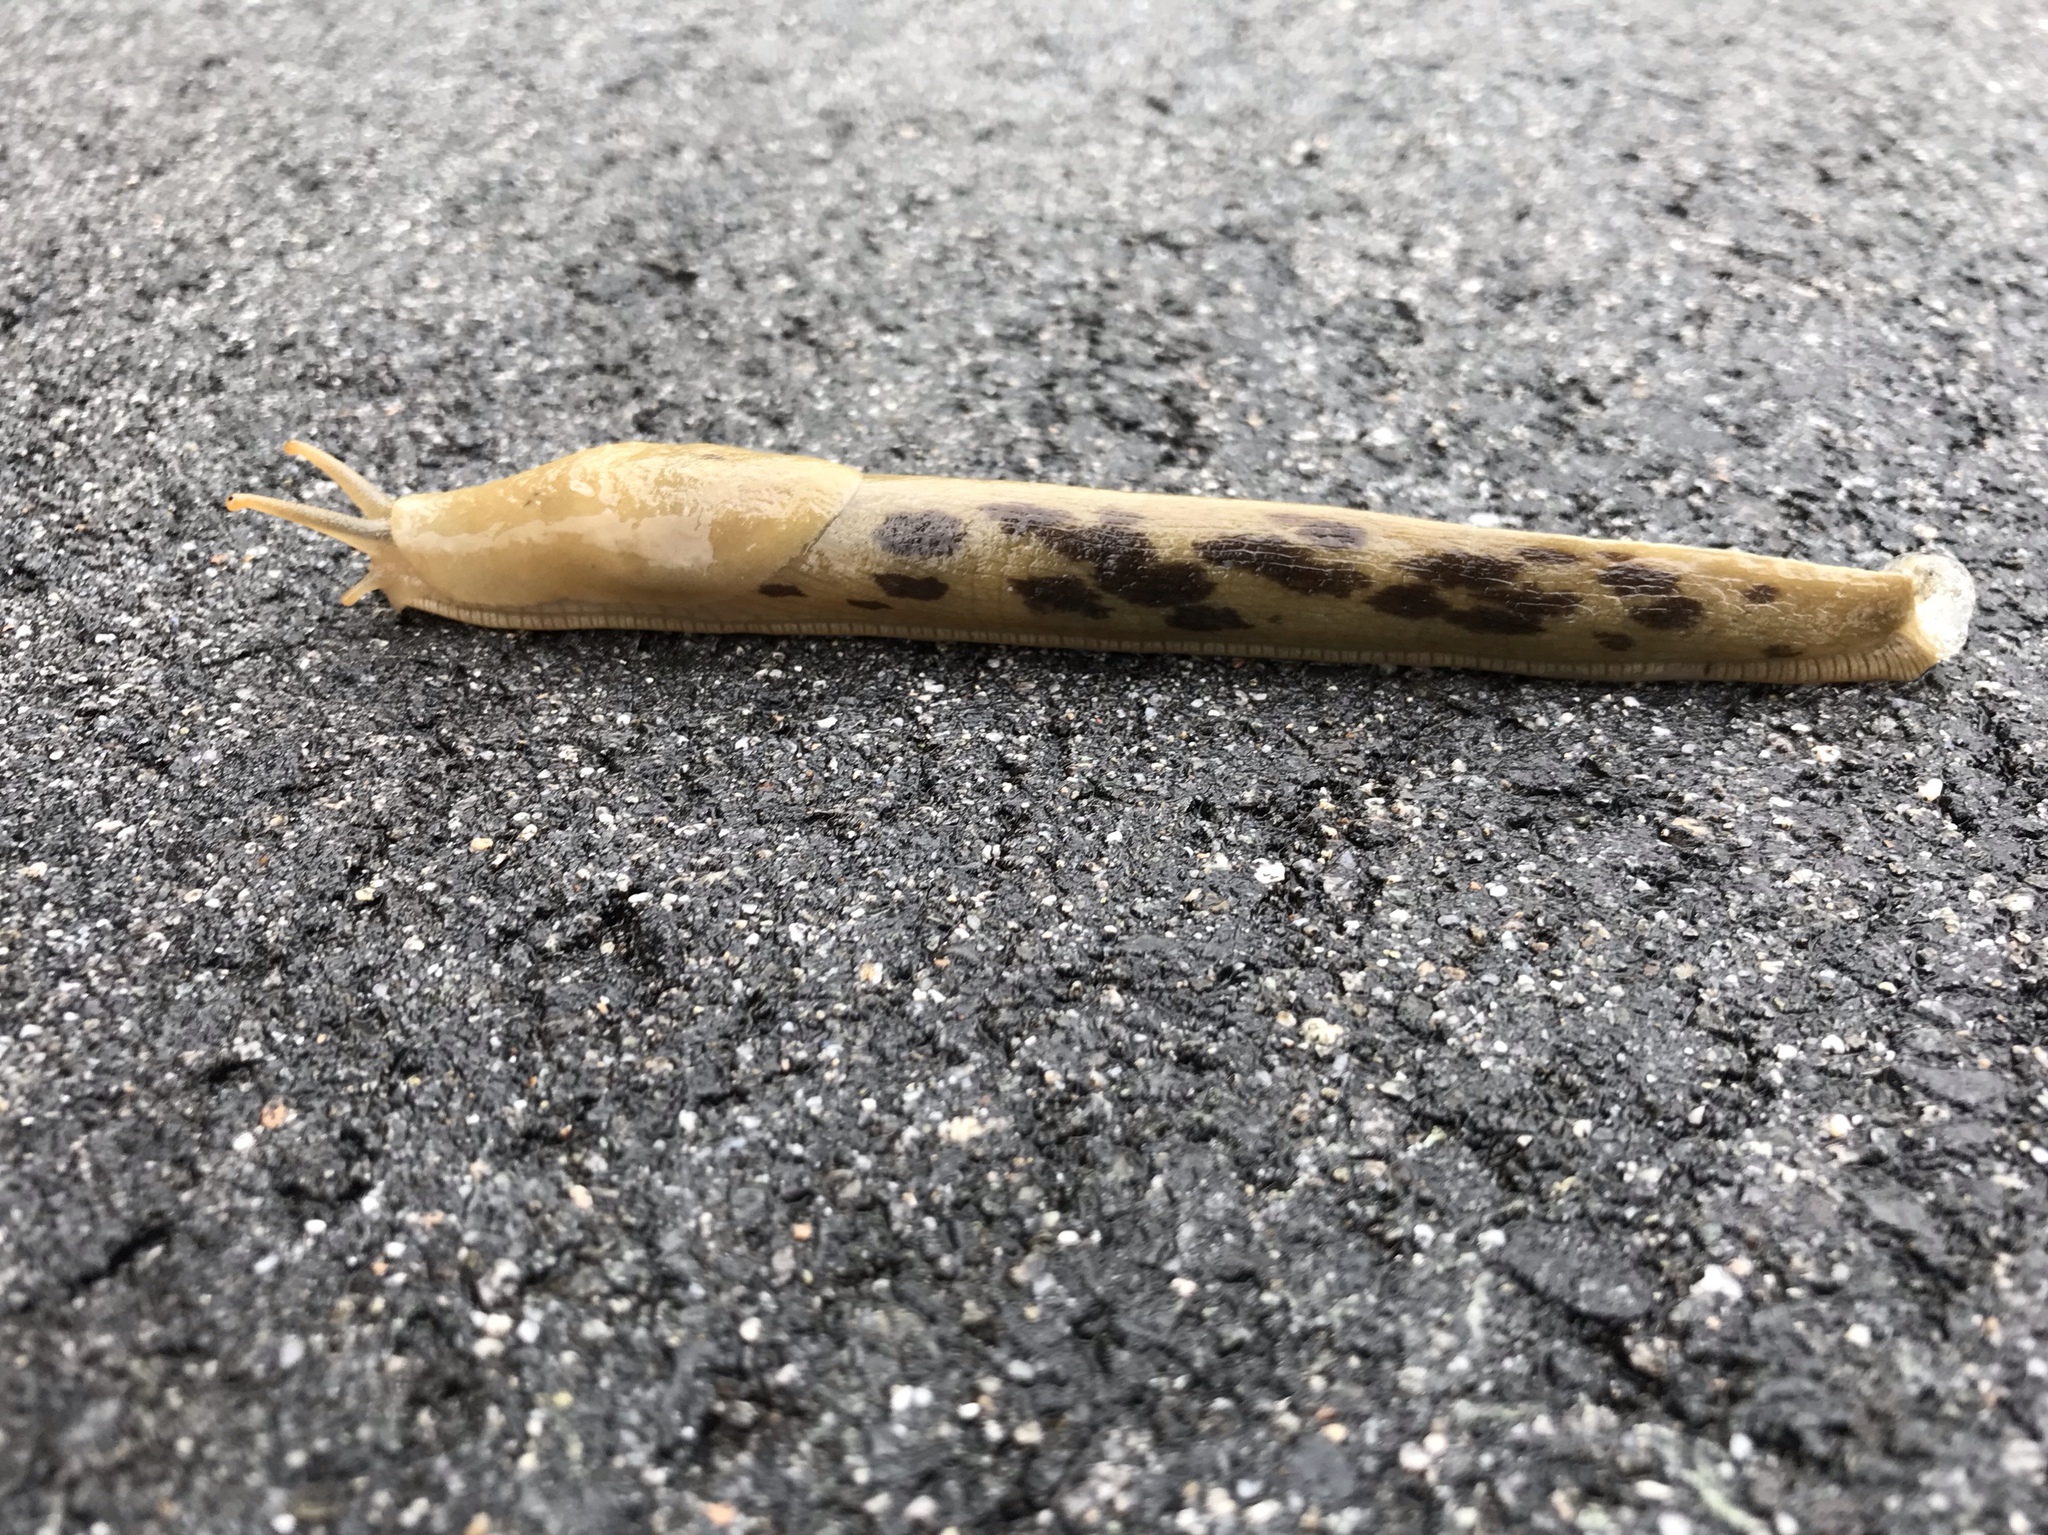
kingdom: Animalia
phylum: Mollusca
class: Gastropoda
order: Stylommatophora
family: Ariolimacidae
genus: Ariolimax
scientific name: Ariolimax columbianus
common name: Pacific banana slug
